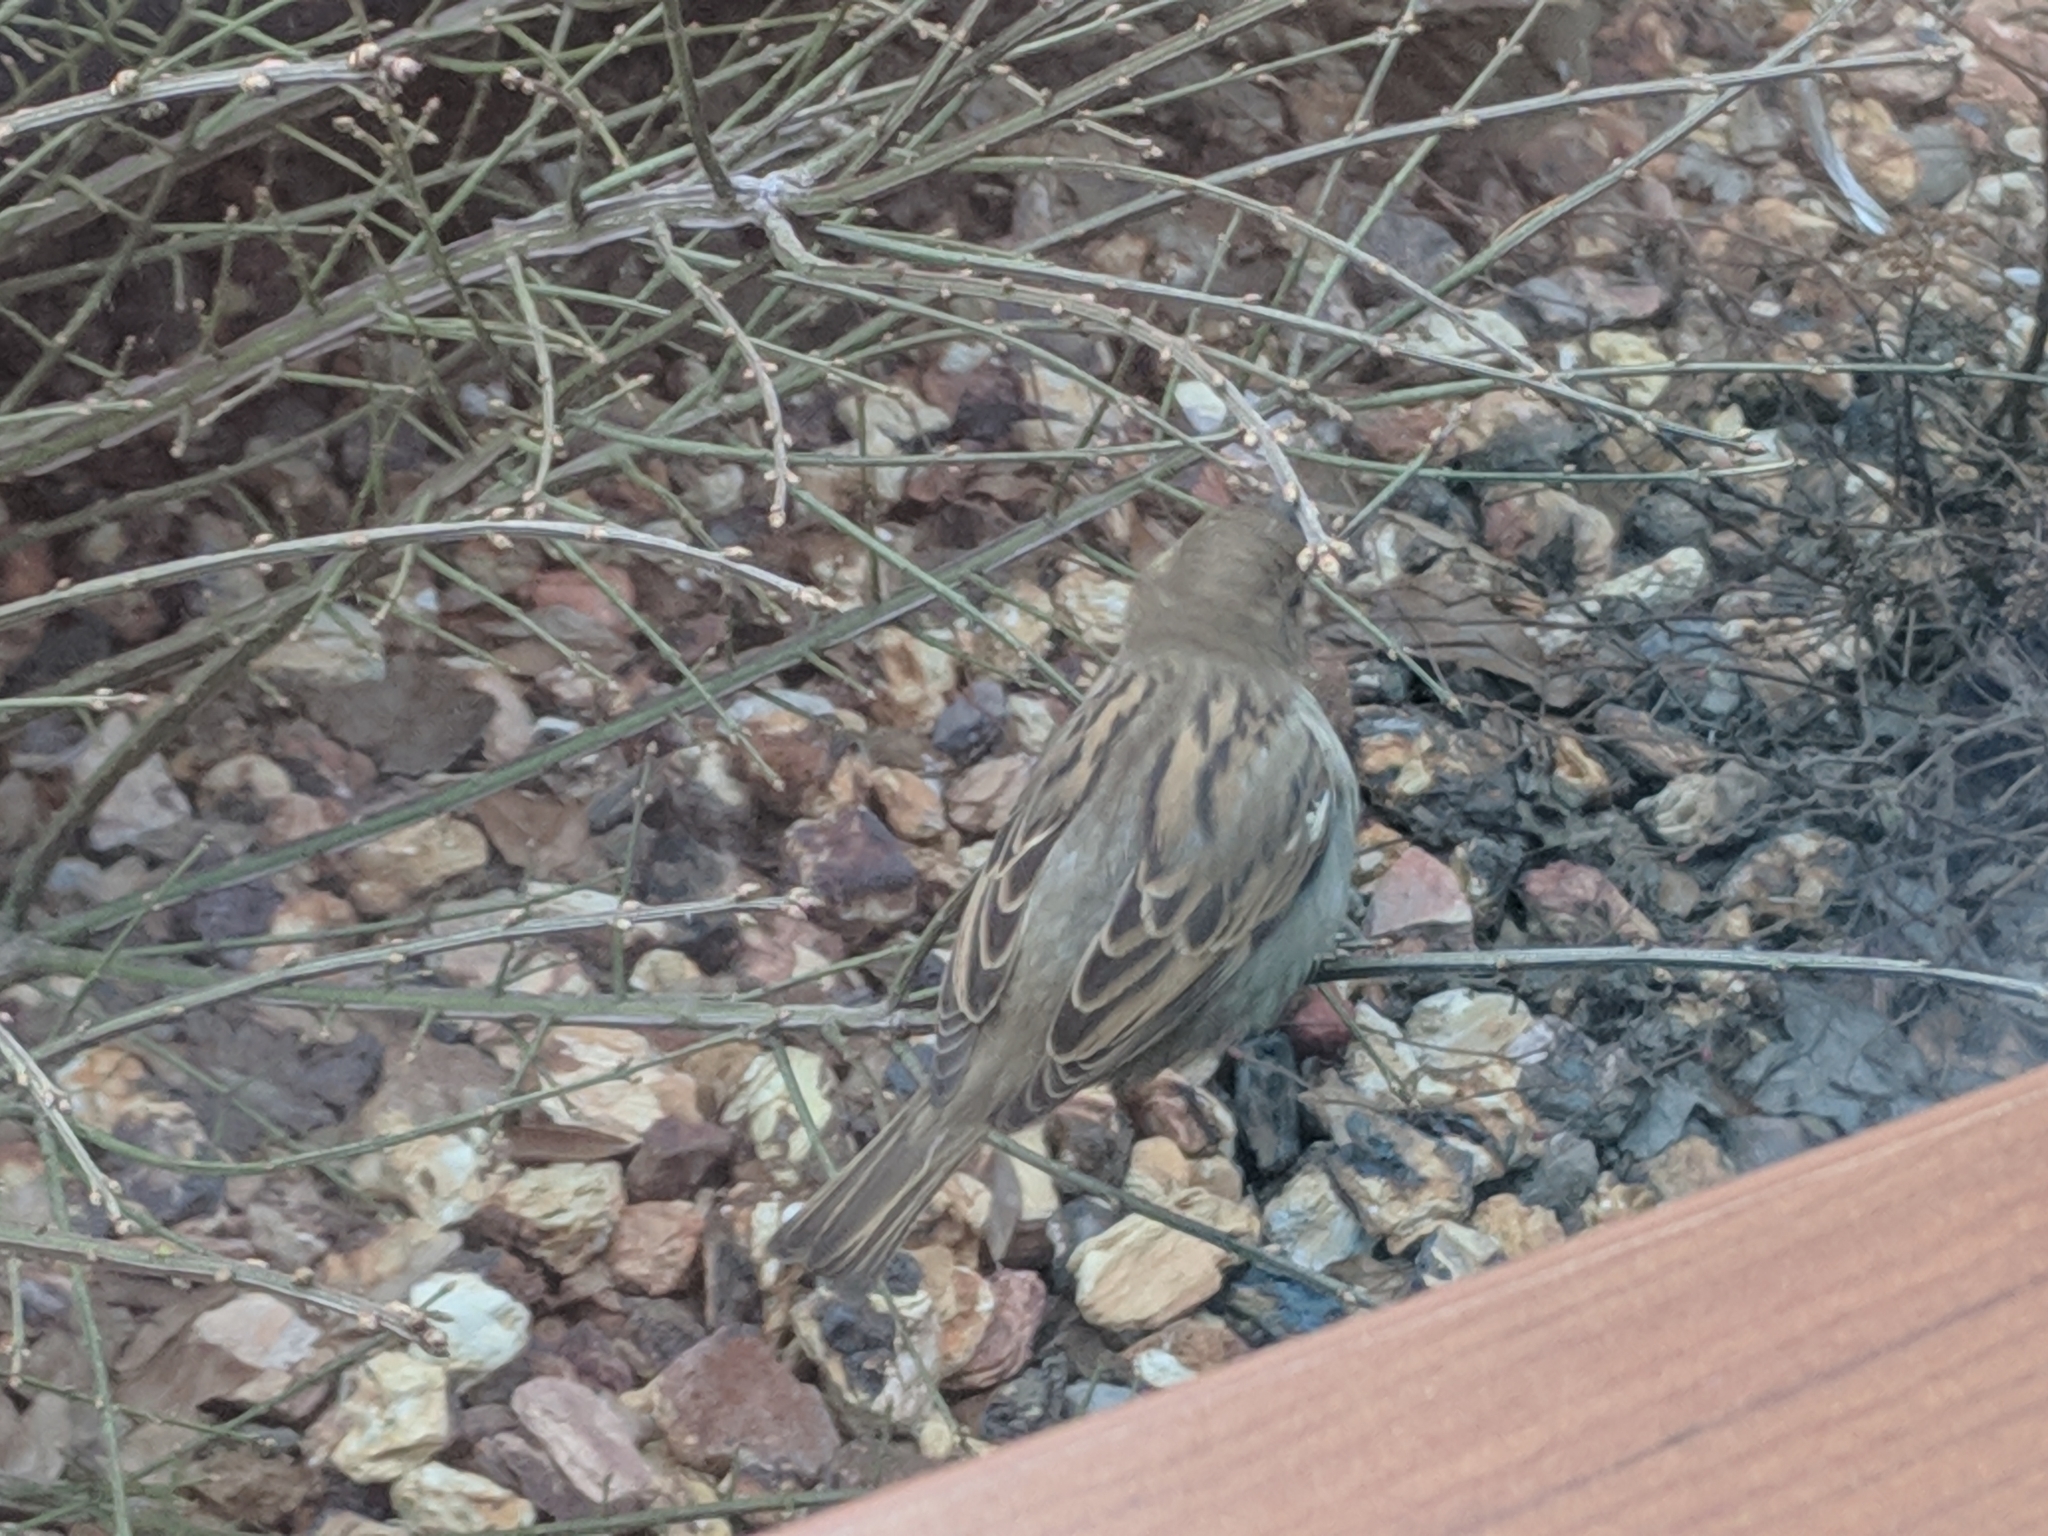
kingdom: Animalia
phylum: Chordata
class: Aves
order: Passeriformes
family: Passeridae
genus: Passer
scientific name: Passer domesticus
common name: House sparrow
